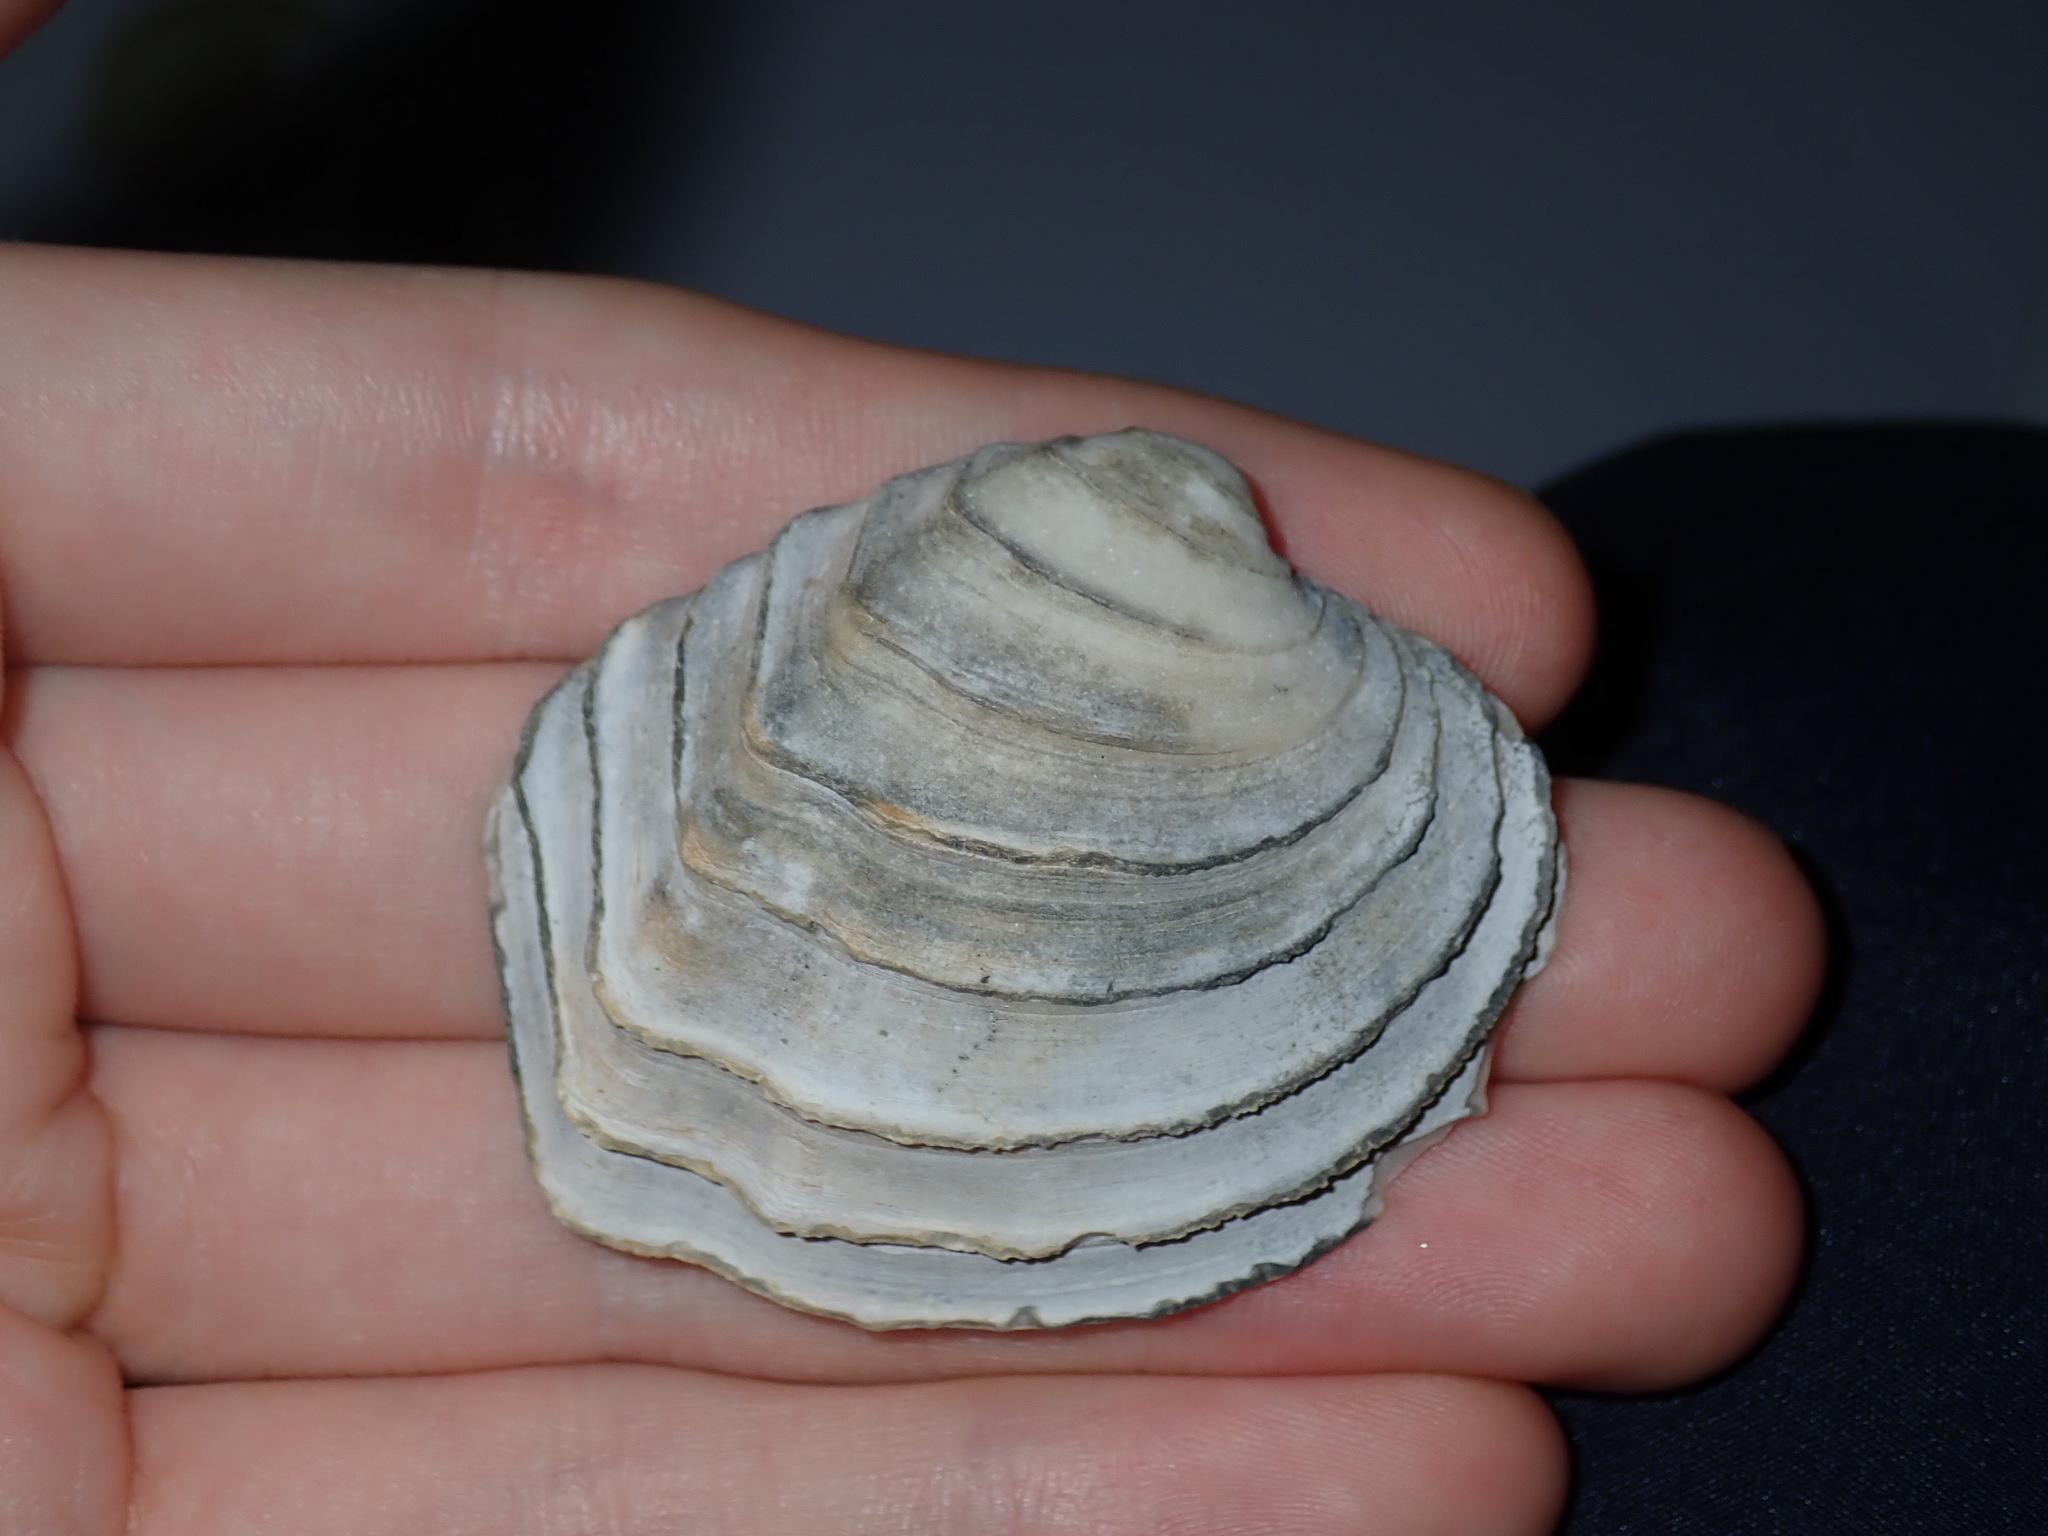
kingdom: Animalia
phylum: Mollusca
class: Bivalvia
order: Venerida
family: Veneridae
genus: Bassina
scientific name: Bassina disjecta
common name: Wedding-cake venus
